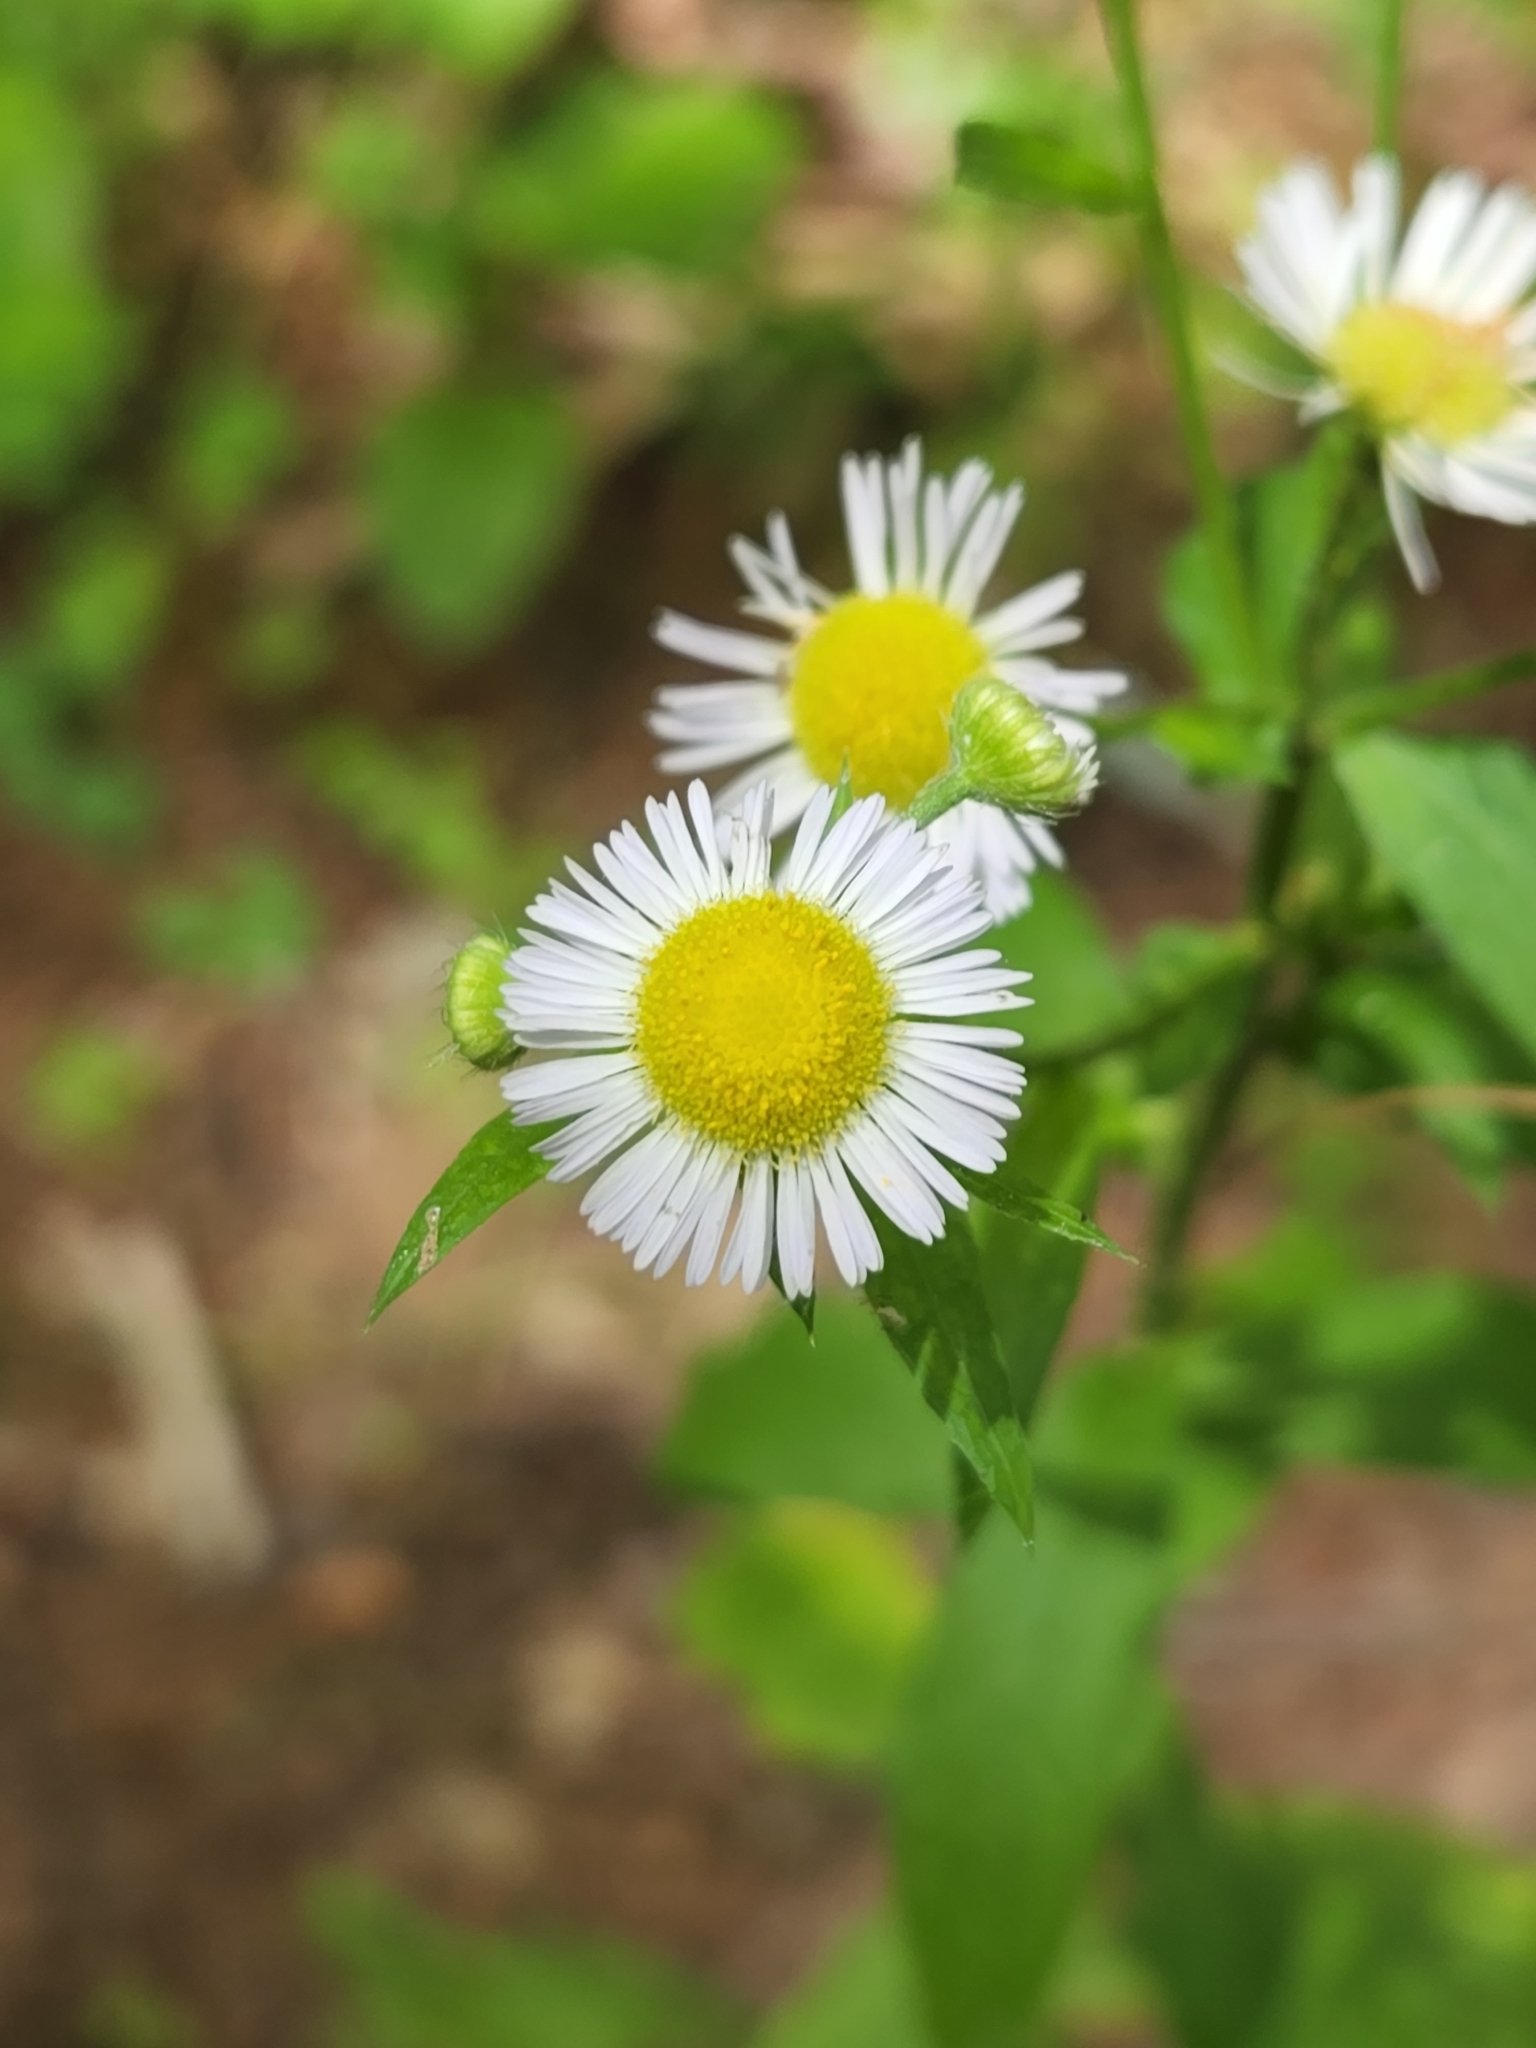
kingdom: Plantae
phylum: Tracheophyta
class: Magnoliopsida
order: Asterales
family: Asteraceae
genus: Erigeron
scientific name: Erigeron annuus
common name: Tall fleabane
